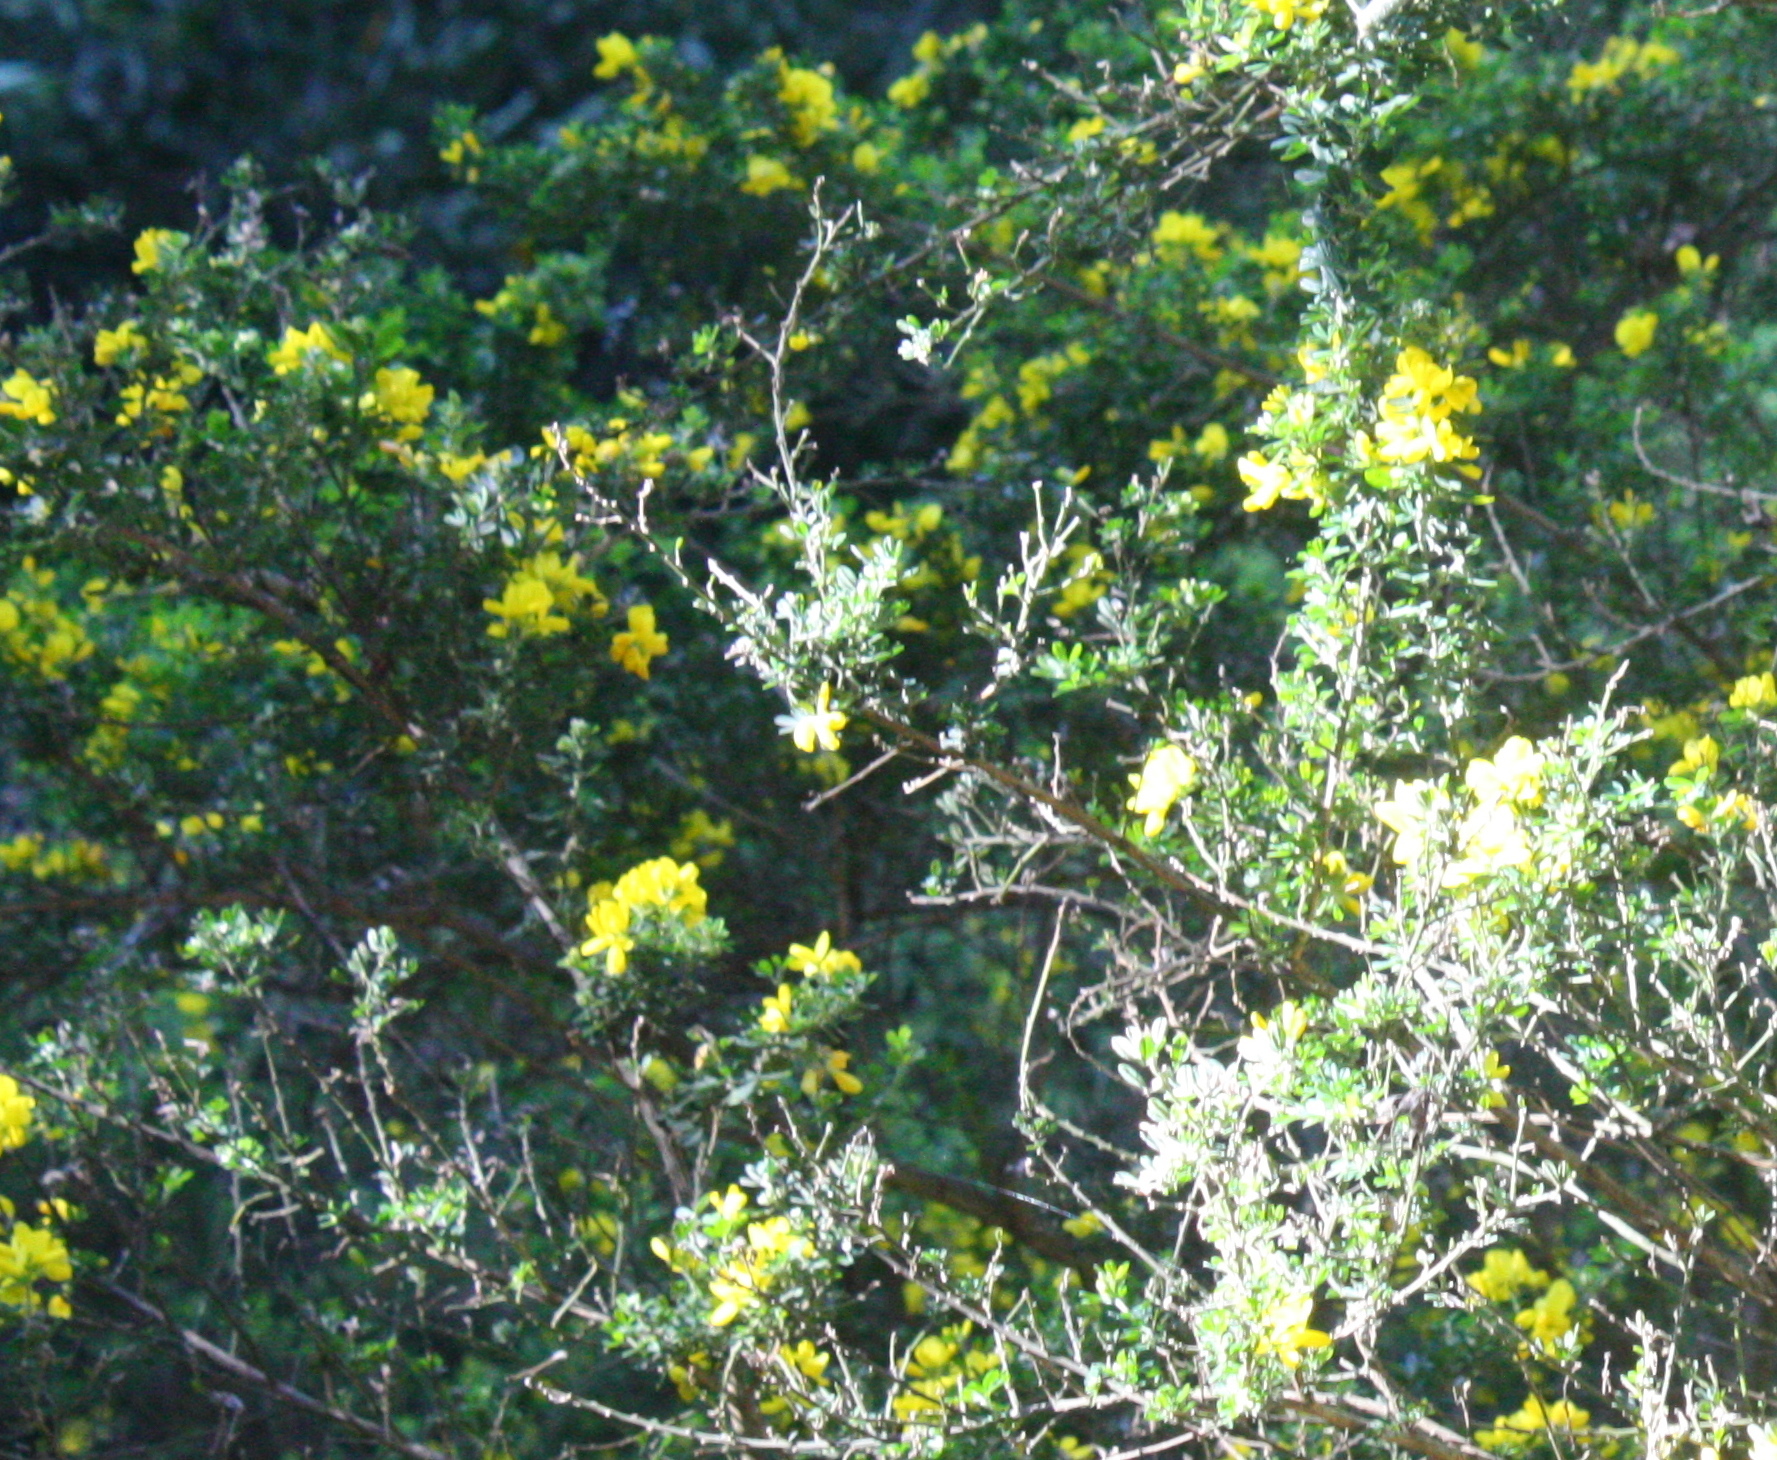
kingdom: Plantae
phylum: Tracheophyta
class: Magnoliopsida
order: Fabales
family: Fabaceae
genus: Genista
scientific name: Genista monspessulana
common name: Montpellier broom
